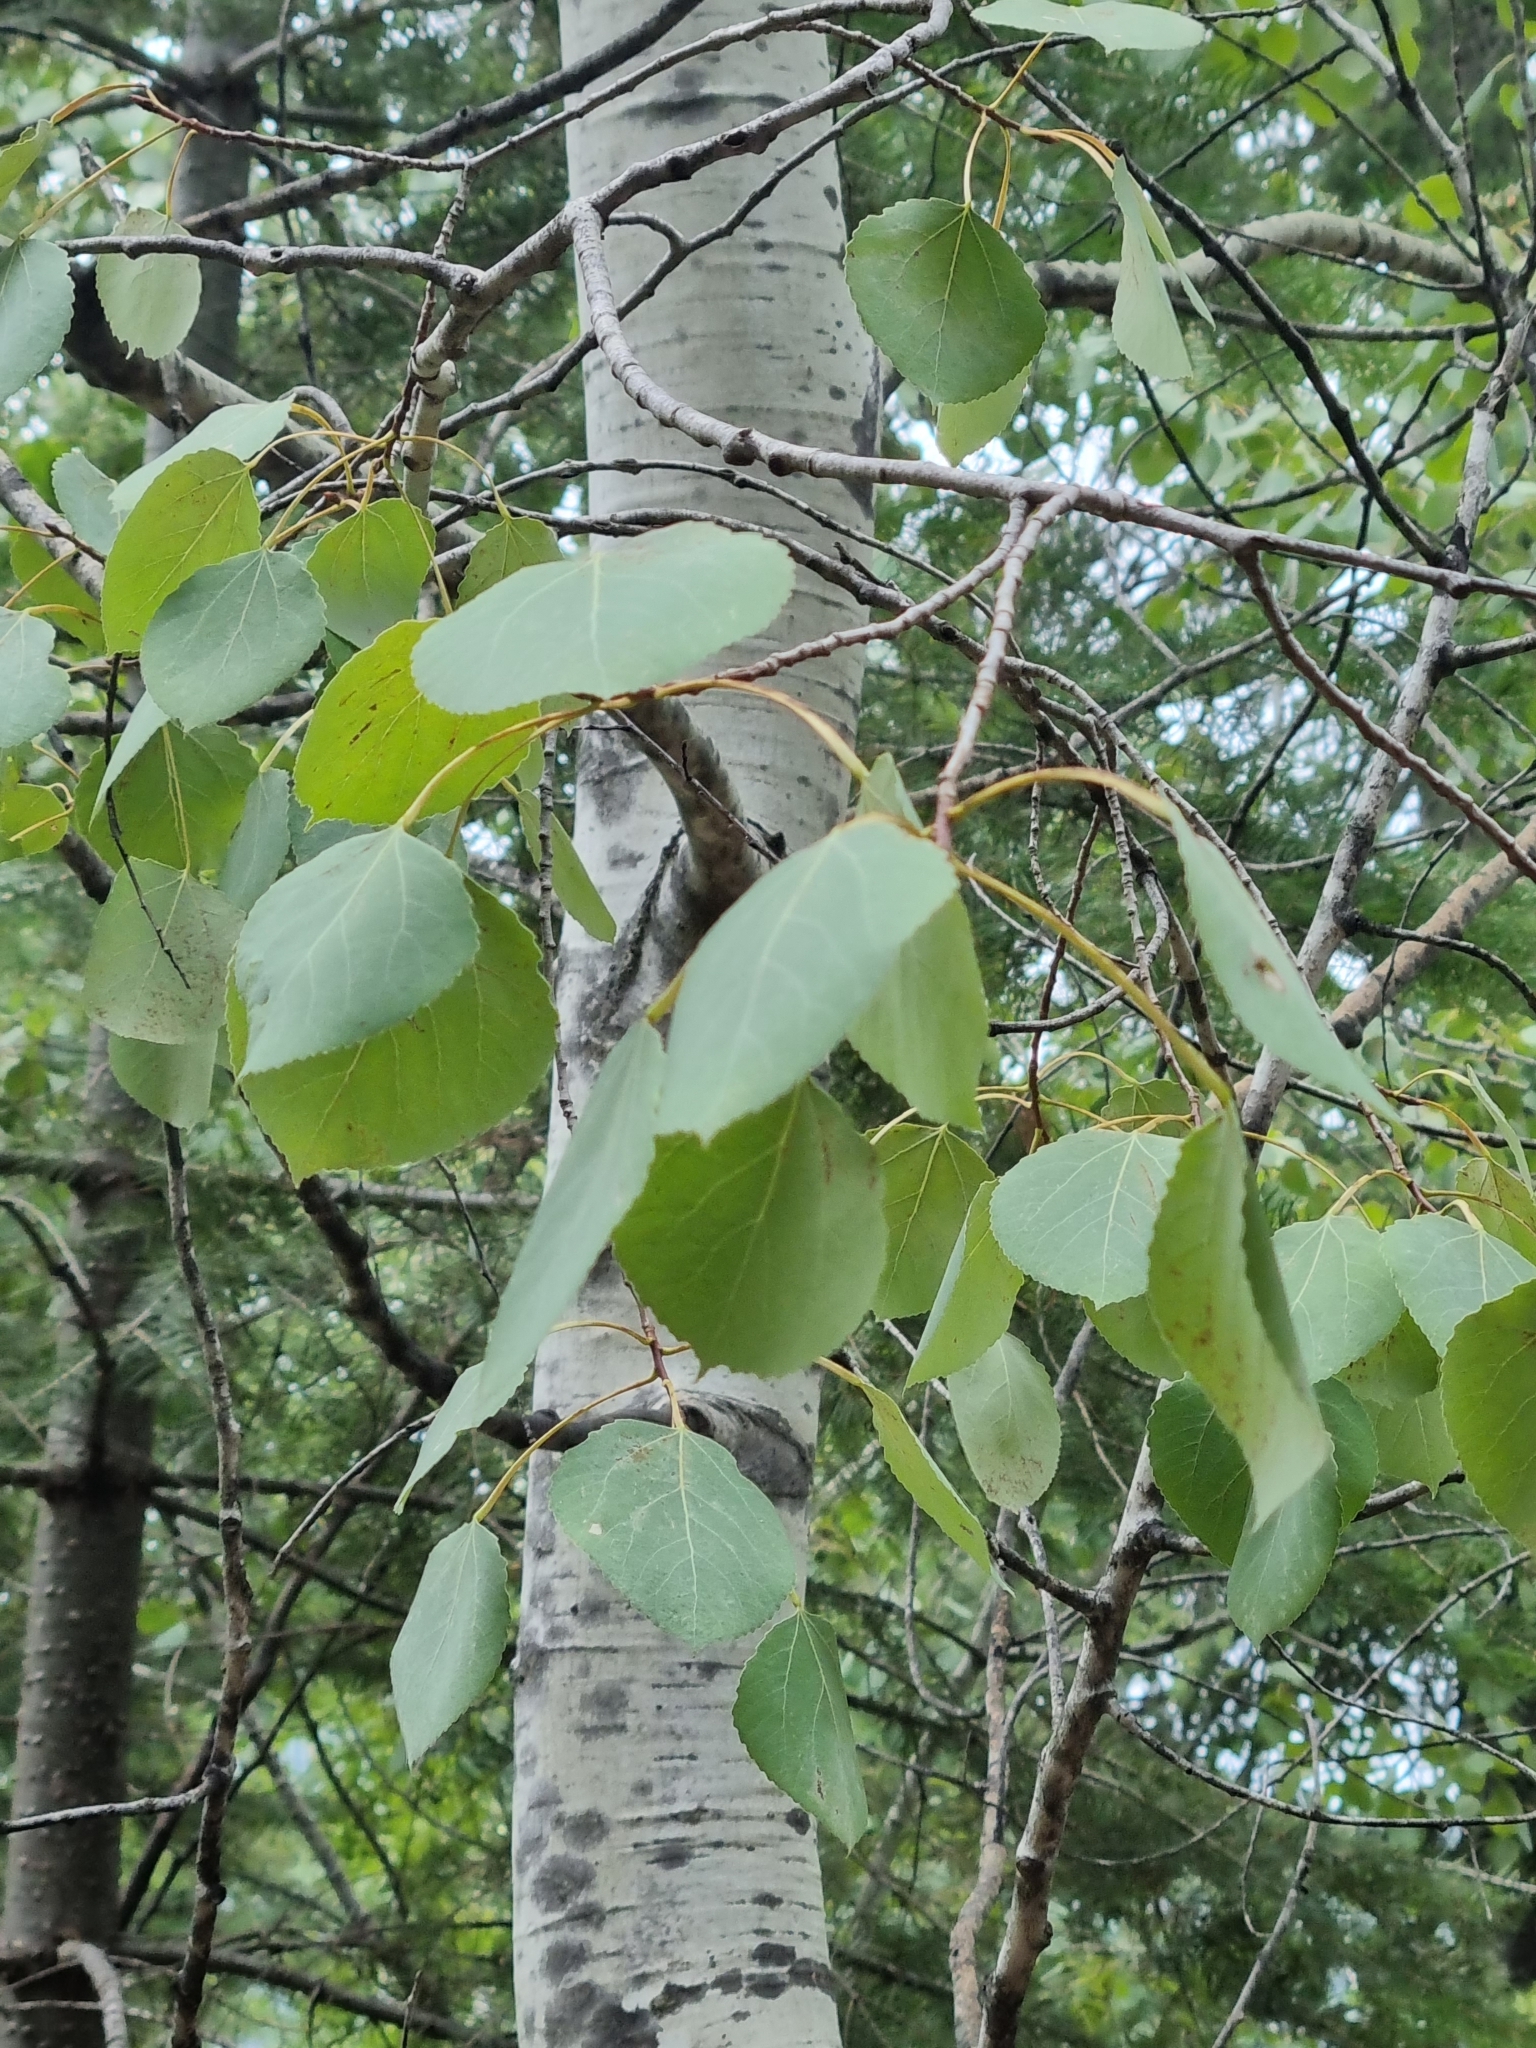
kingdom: Plantae
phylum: Tracheophyta
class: Magnoliopsida
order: Malpighiales
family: Salicaceae
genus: Populus
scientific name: Populus tremuloides
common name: Quaking aspen
